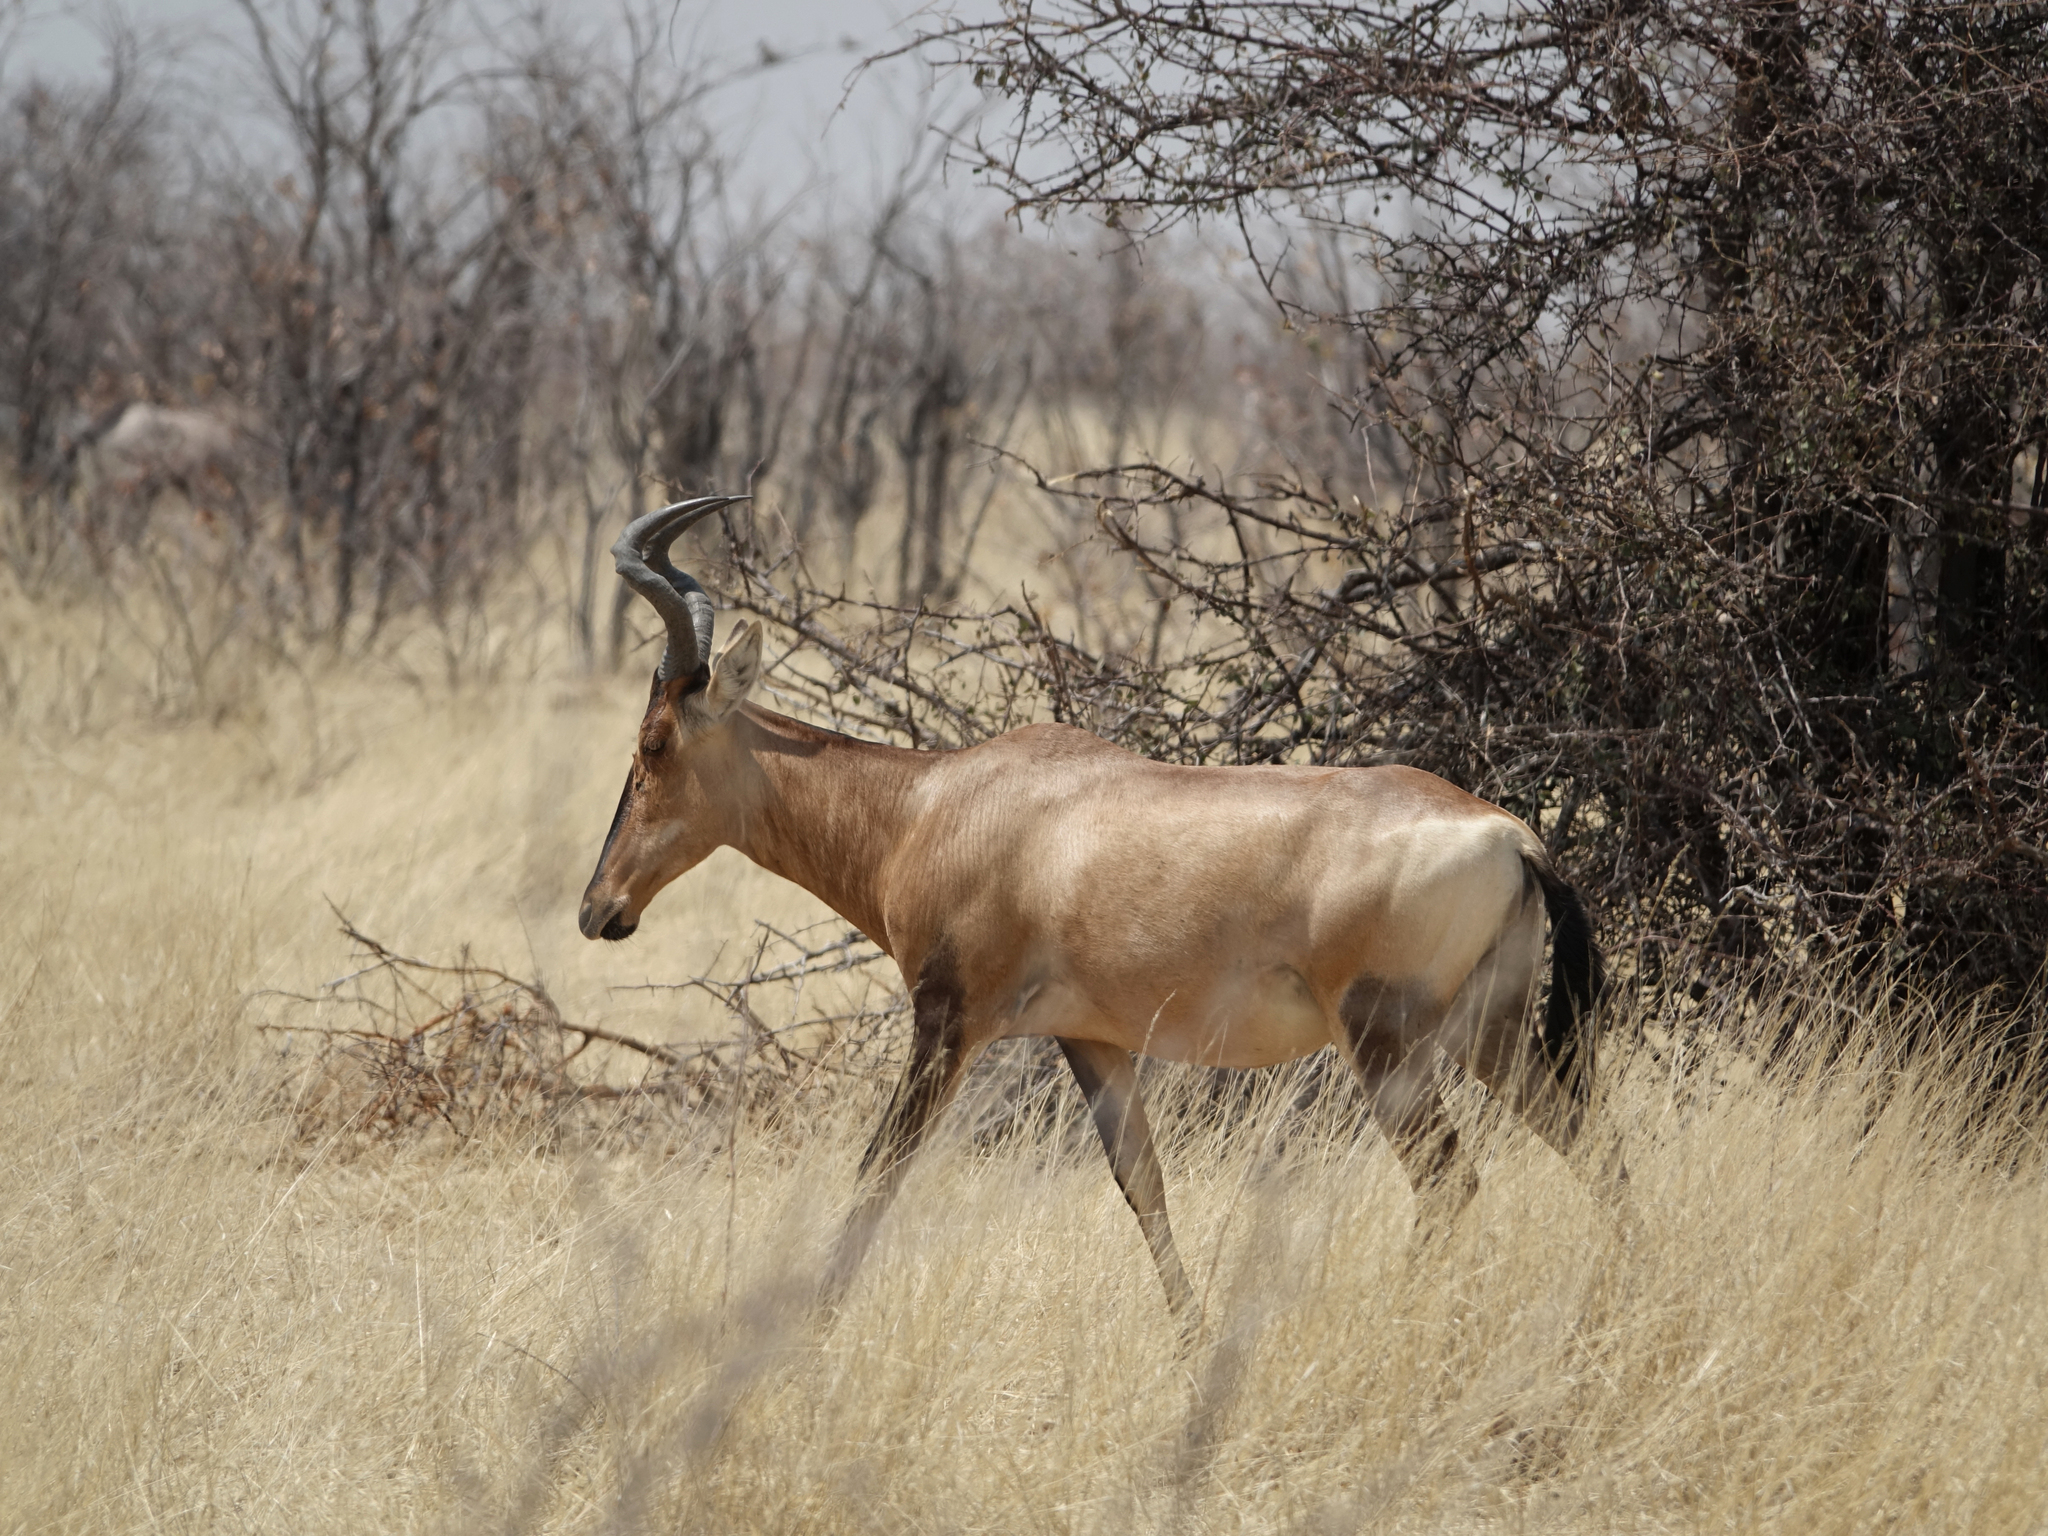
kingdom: Animalia
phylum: Chordata
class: Mammalia
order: Artiodactyla
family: Bovidae
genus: Alcelaphus
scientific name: Alcelaphus caama
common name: Red hartebeest
